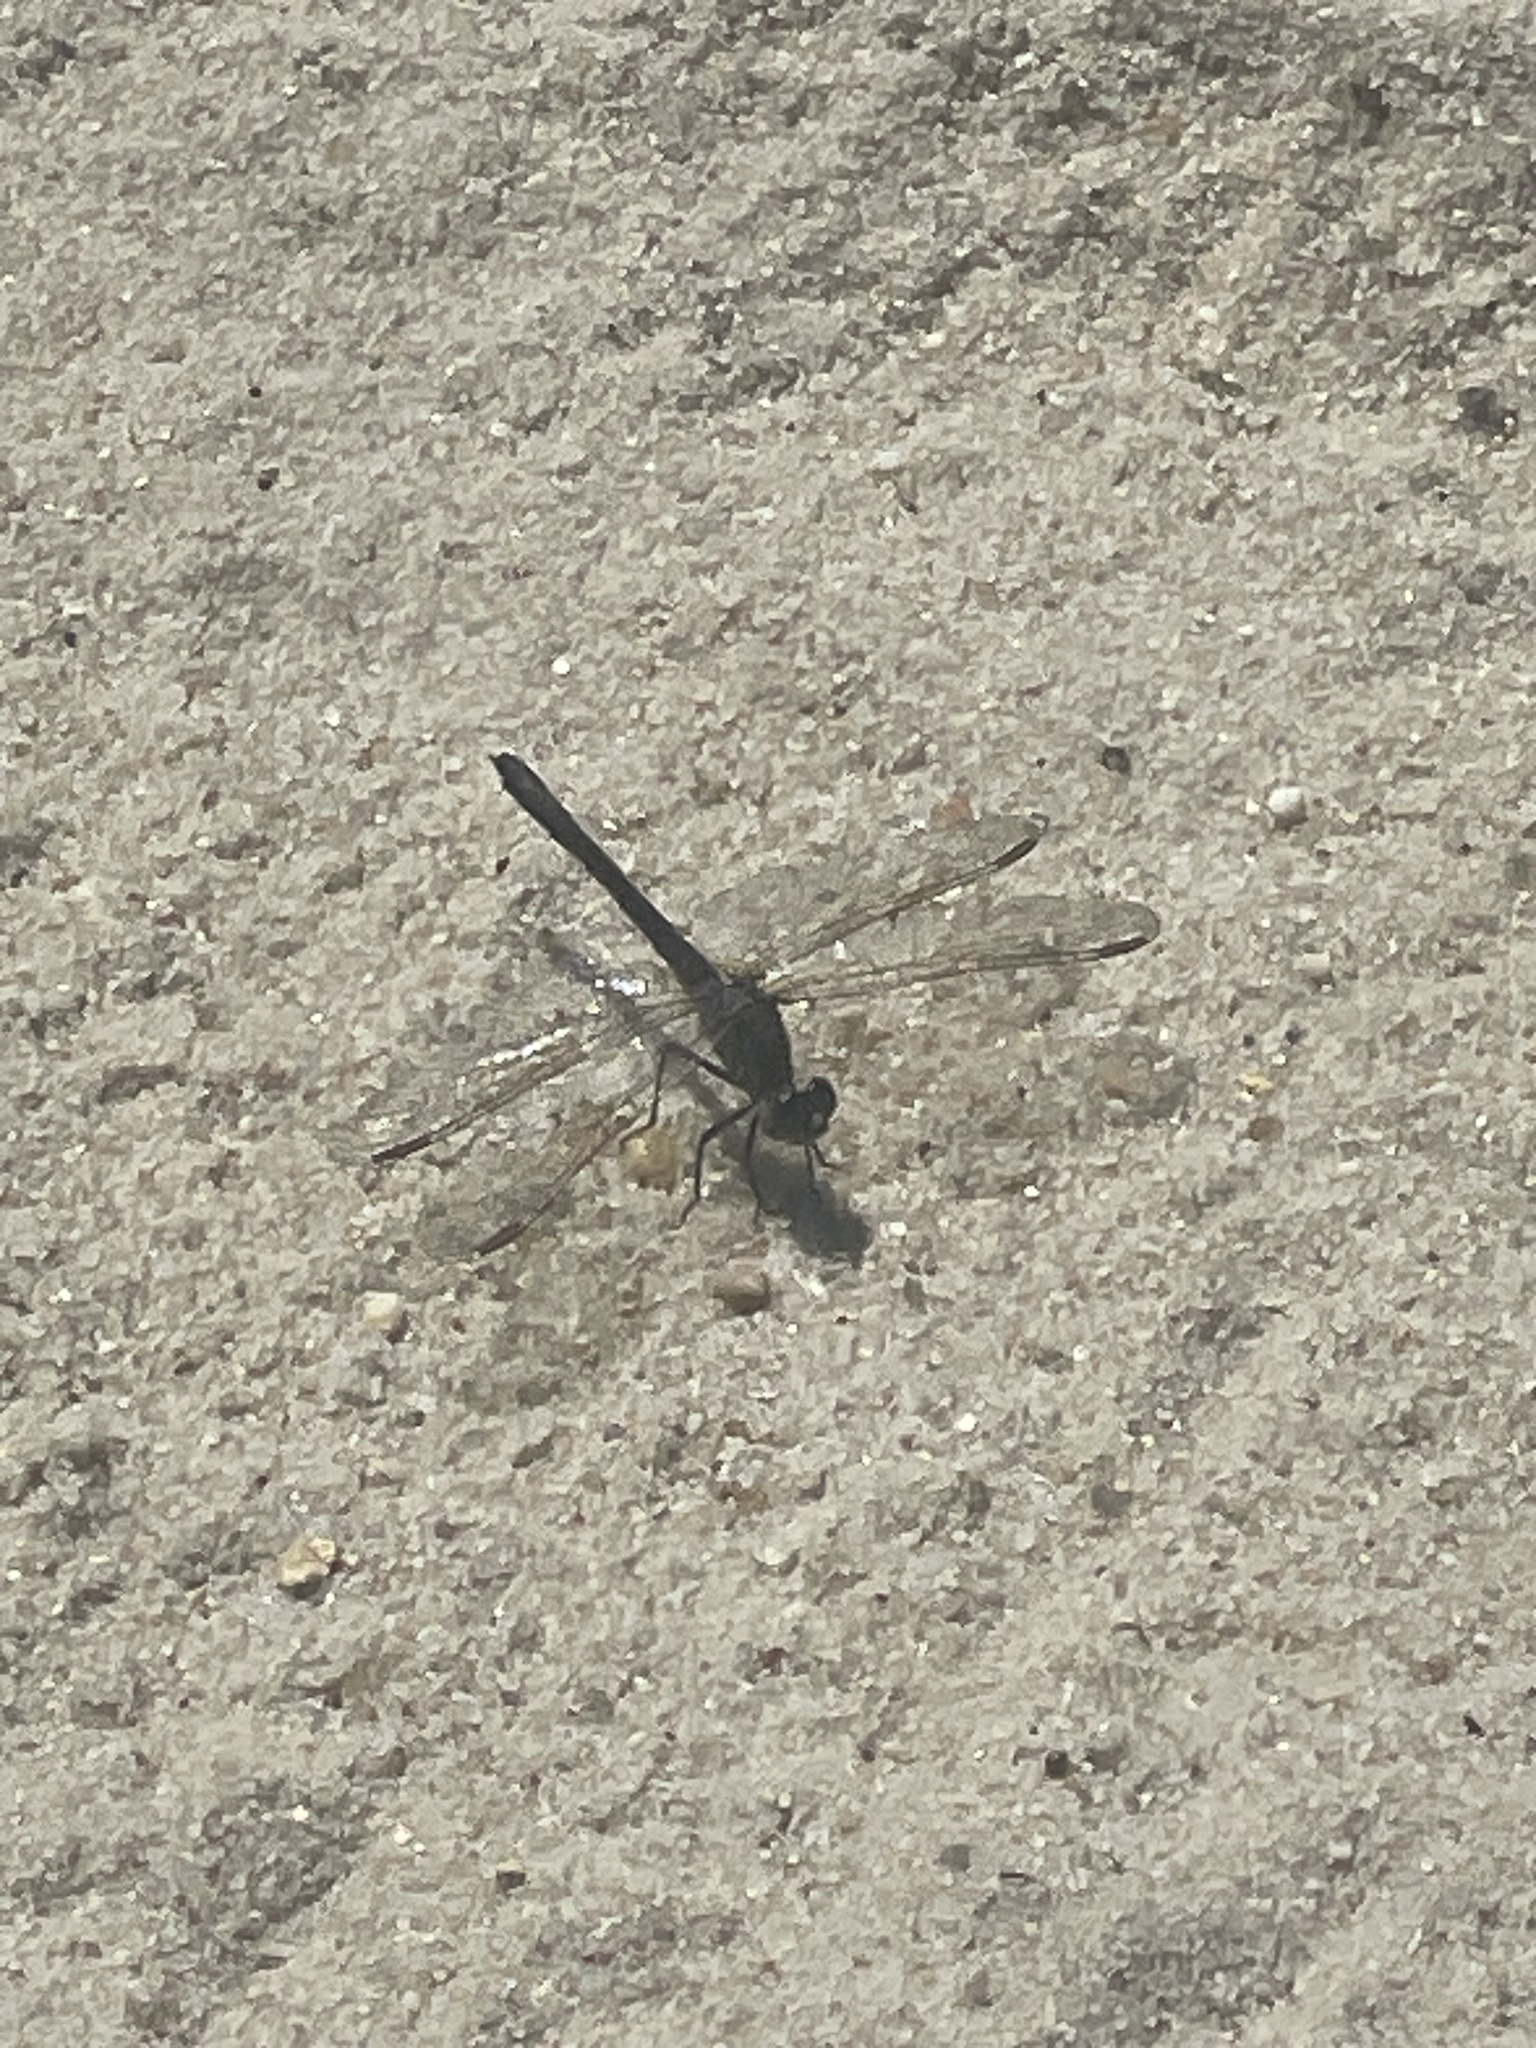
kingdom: Animalia
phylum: Arthropoda
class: Insecta
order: Odonata
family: Libellulidae
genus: Erythrodiplax
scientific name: Erythrodiplax berenice
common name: Seaside dragonlet
